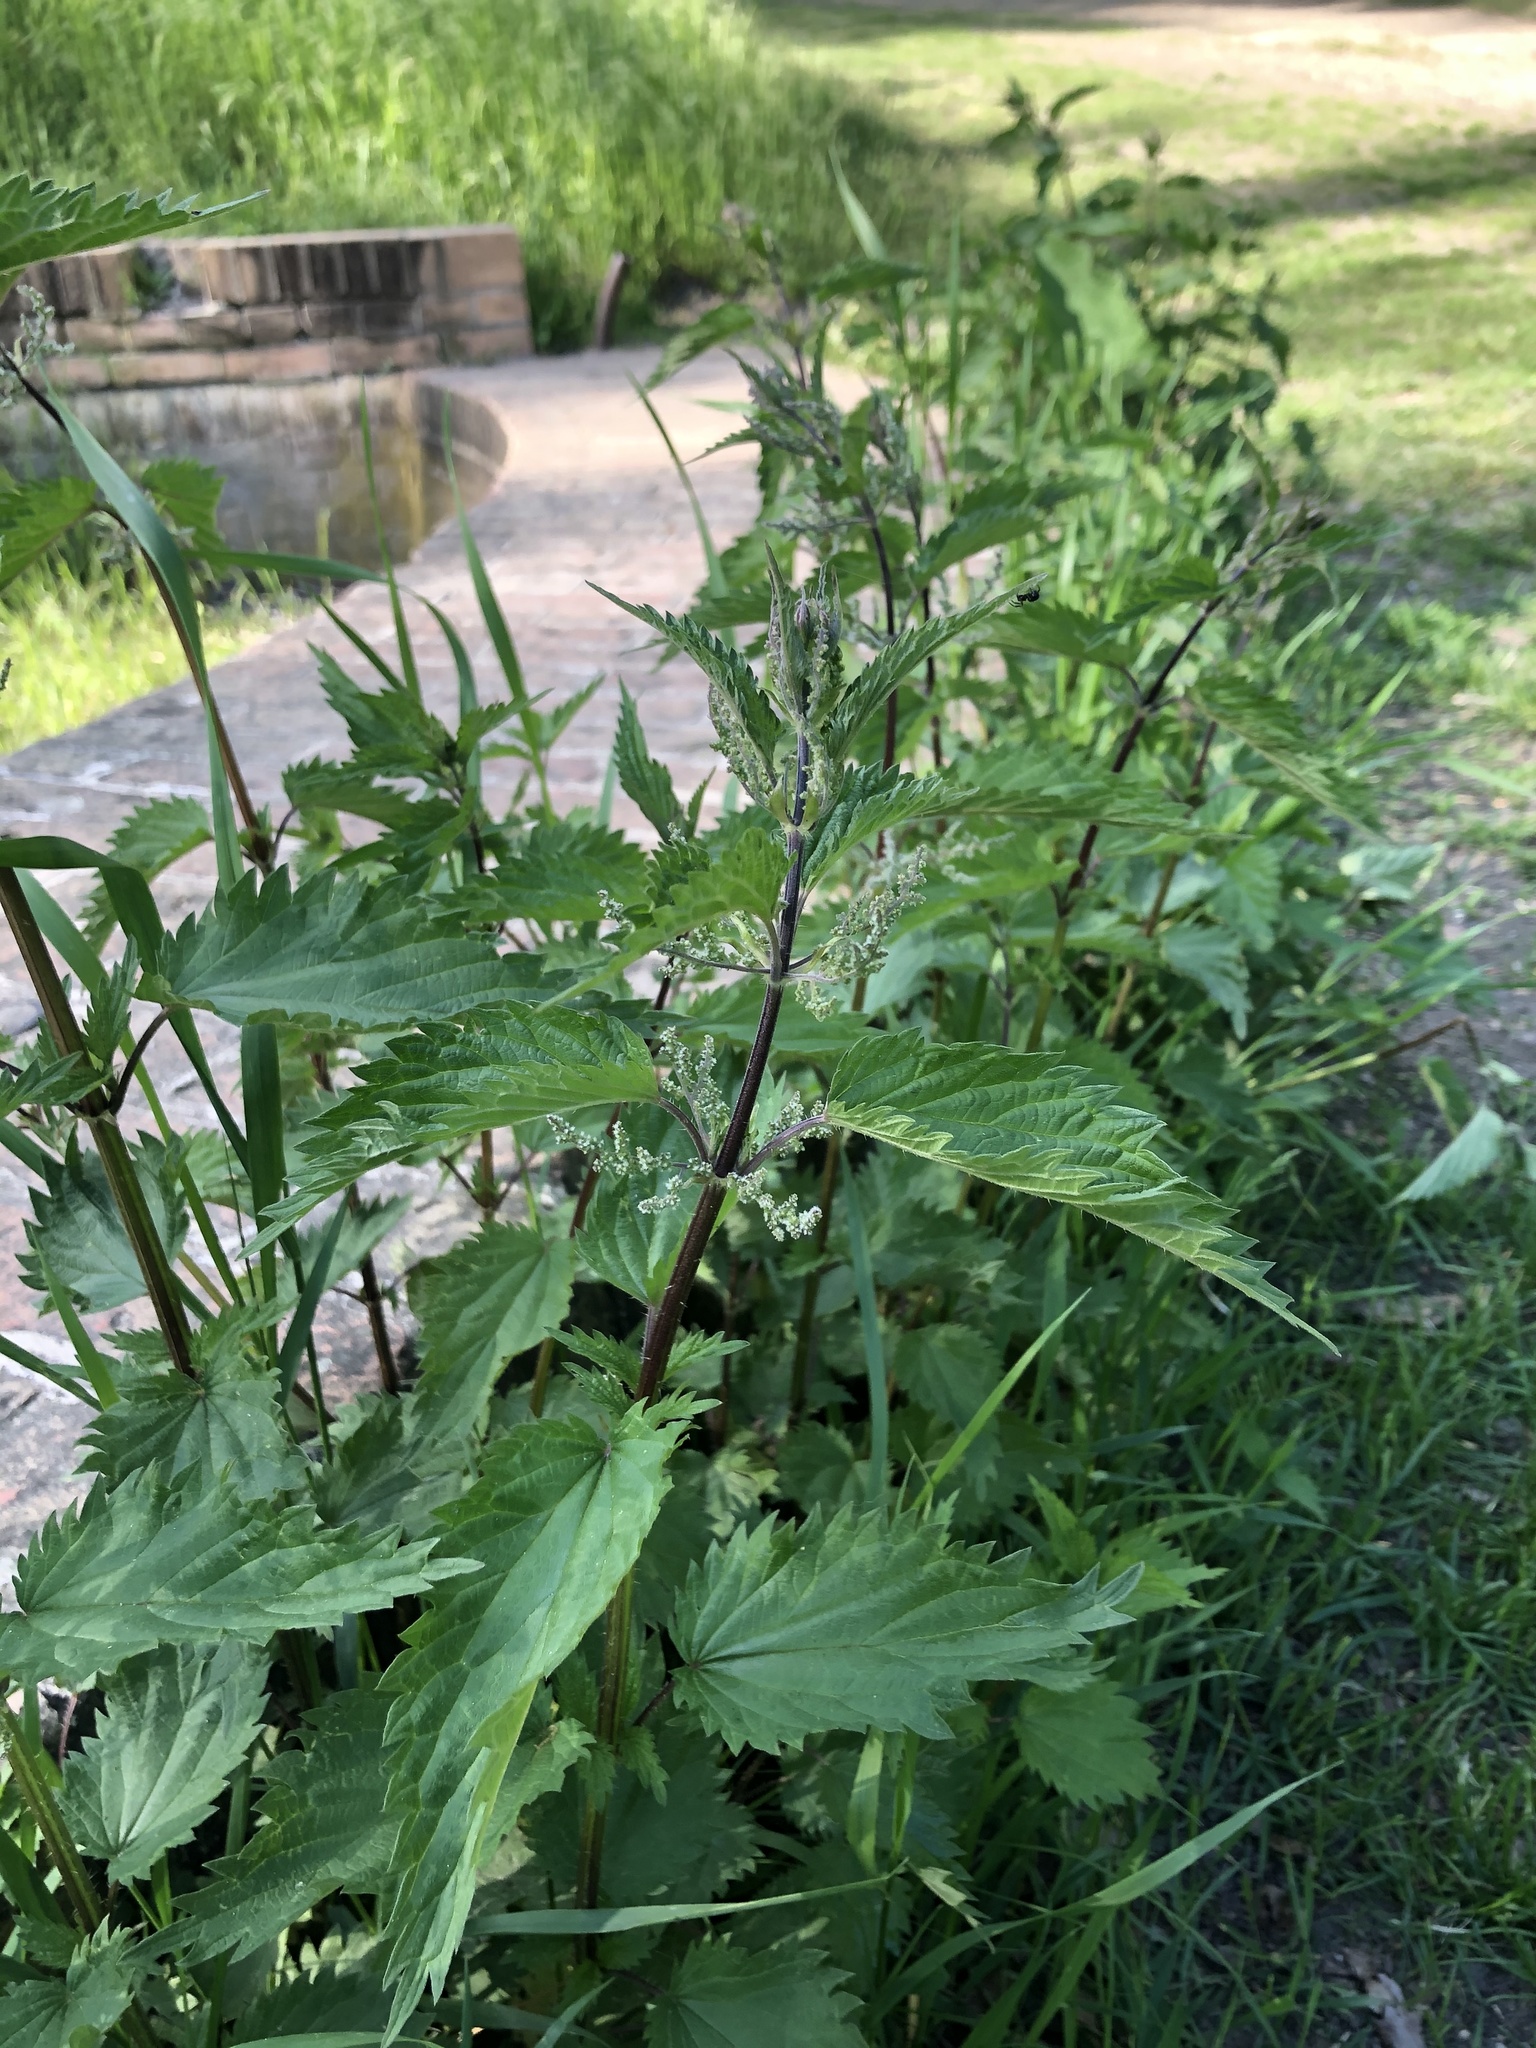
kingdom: Plantae
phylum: Tracheophyta
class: Magnoliopsida
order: Rosales
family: Urticaceae
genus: Urtica
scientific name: Urtica dioica
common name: Common nettle
